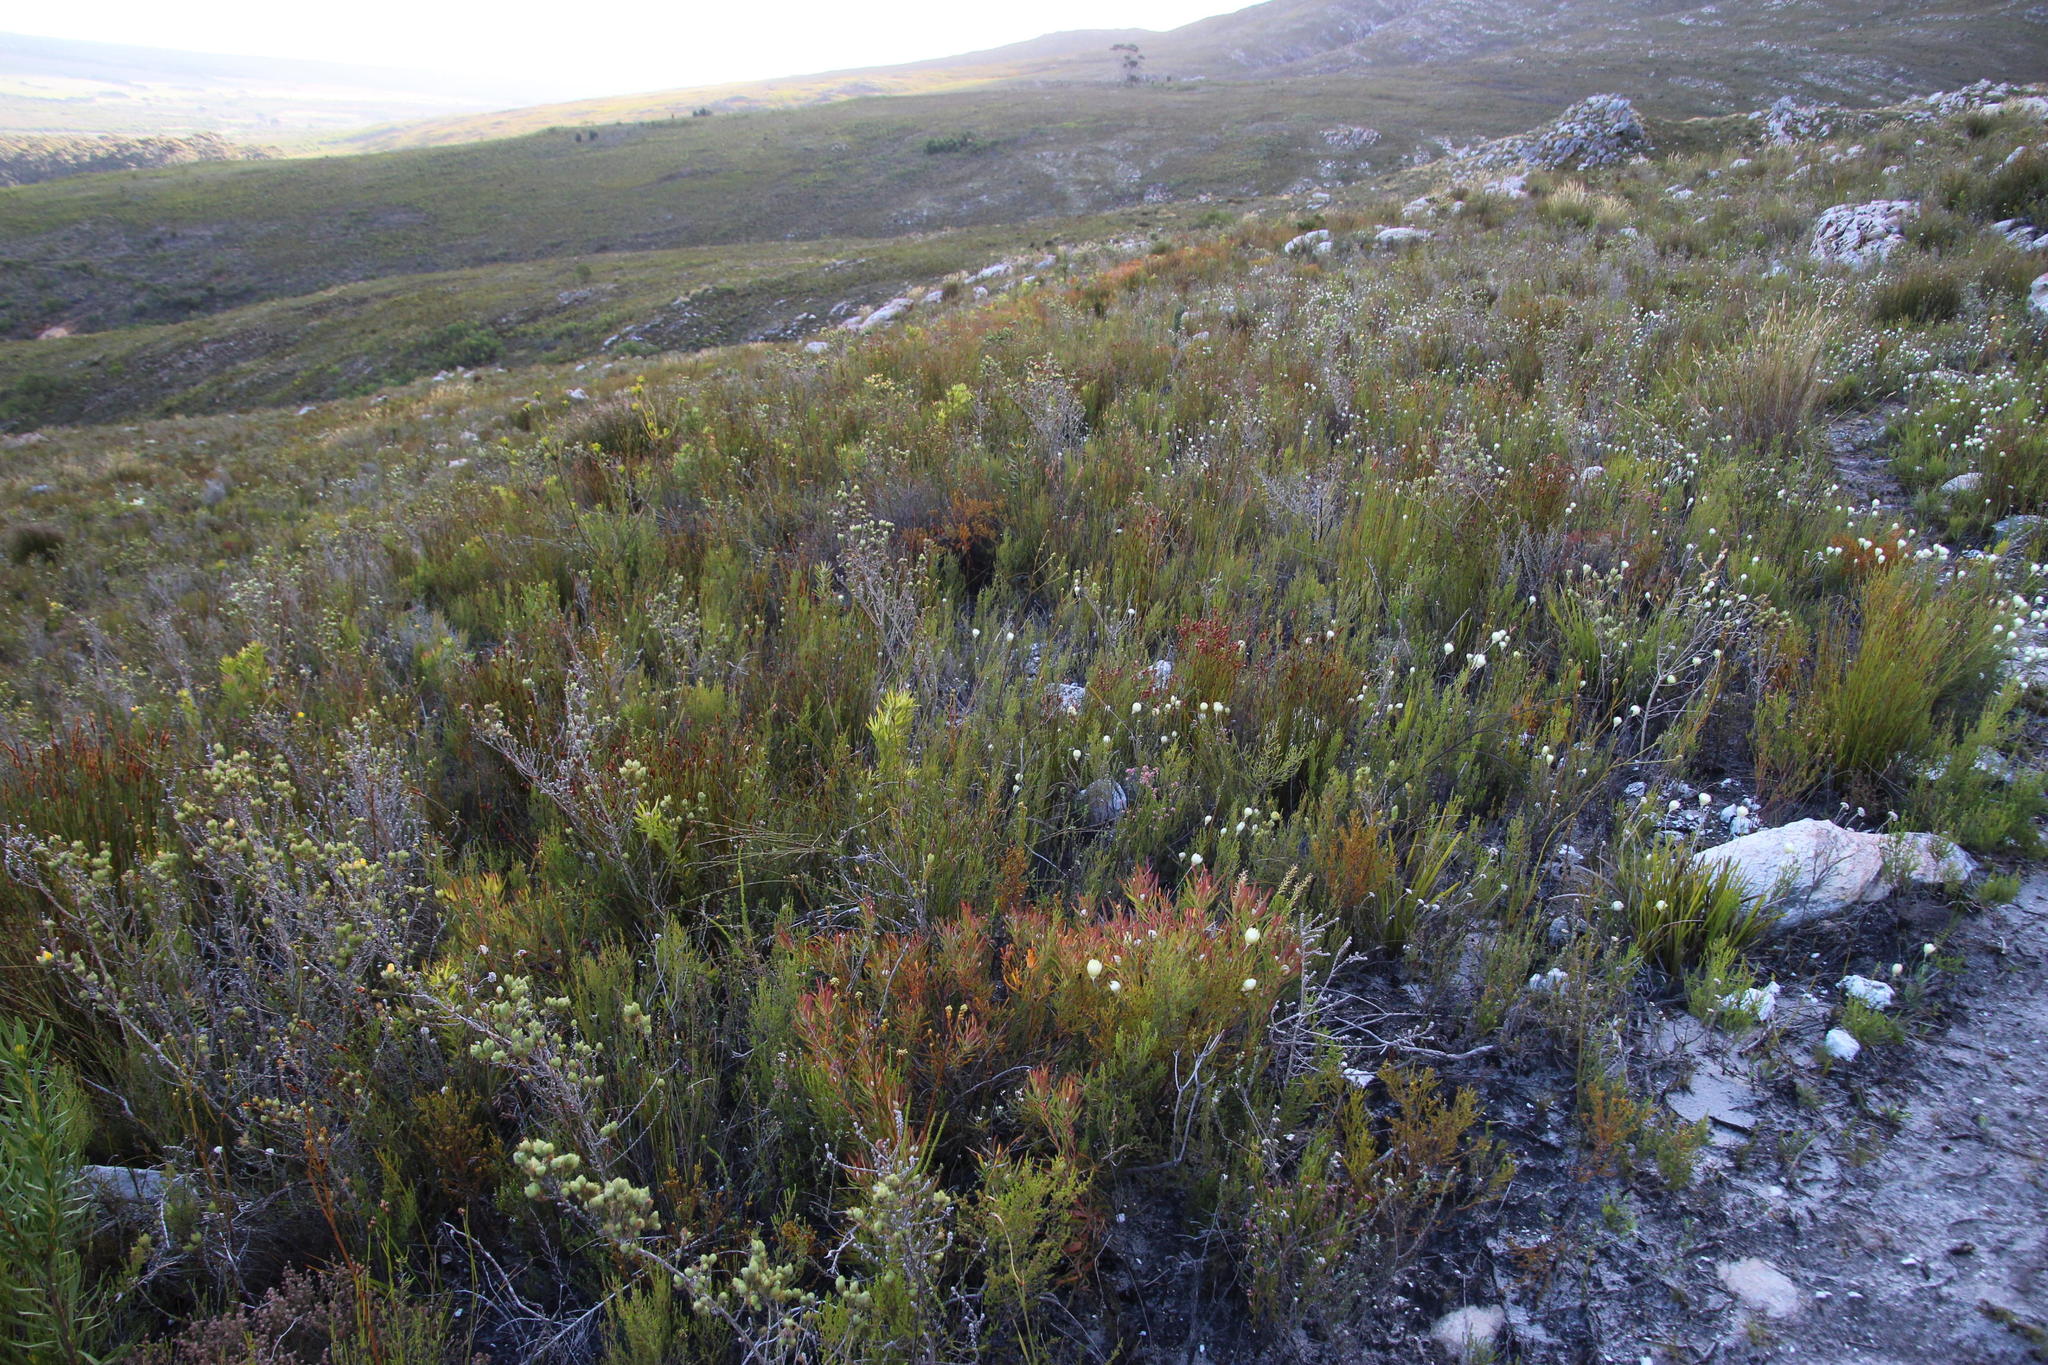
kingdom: Plantae
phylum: Tracheophyta
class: Magnoliopsida
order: Proteales
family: Proteaceae
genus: Leucadendron
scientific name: Leucadendron salignum
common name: Common sunshine conebush
